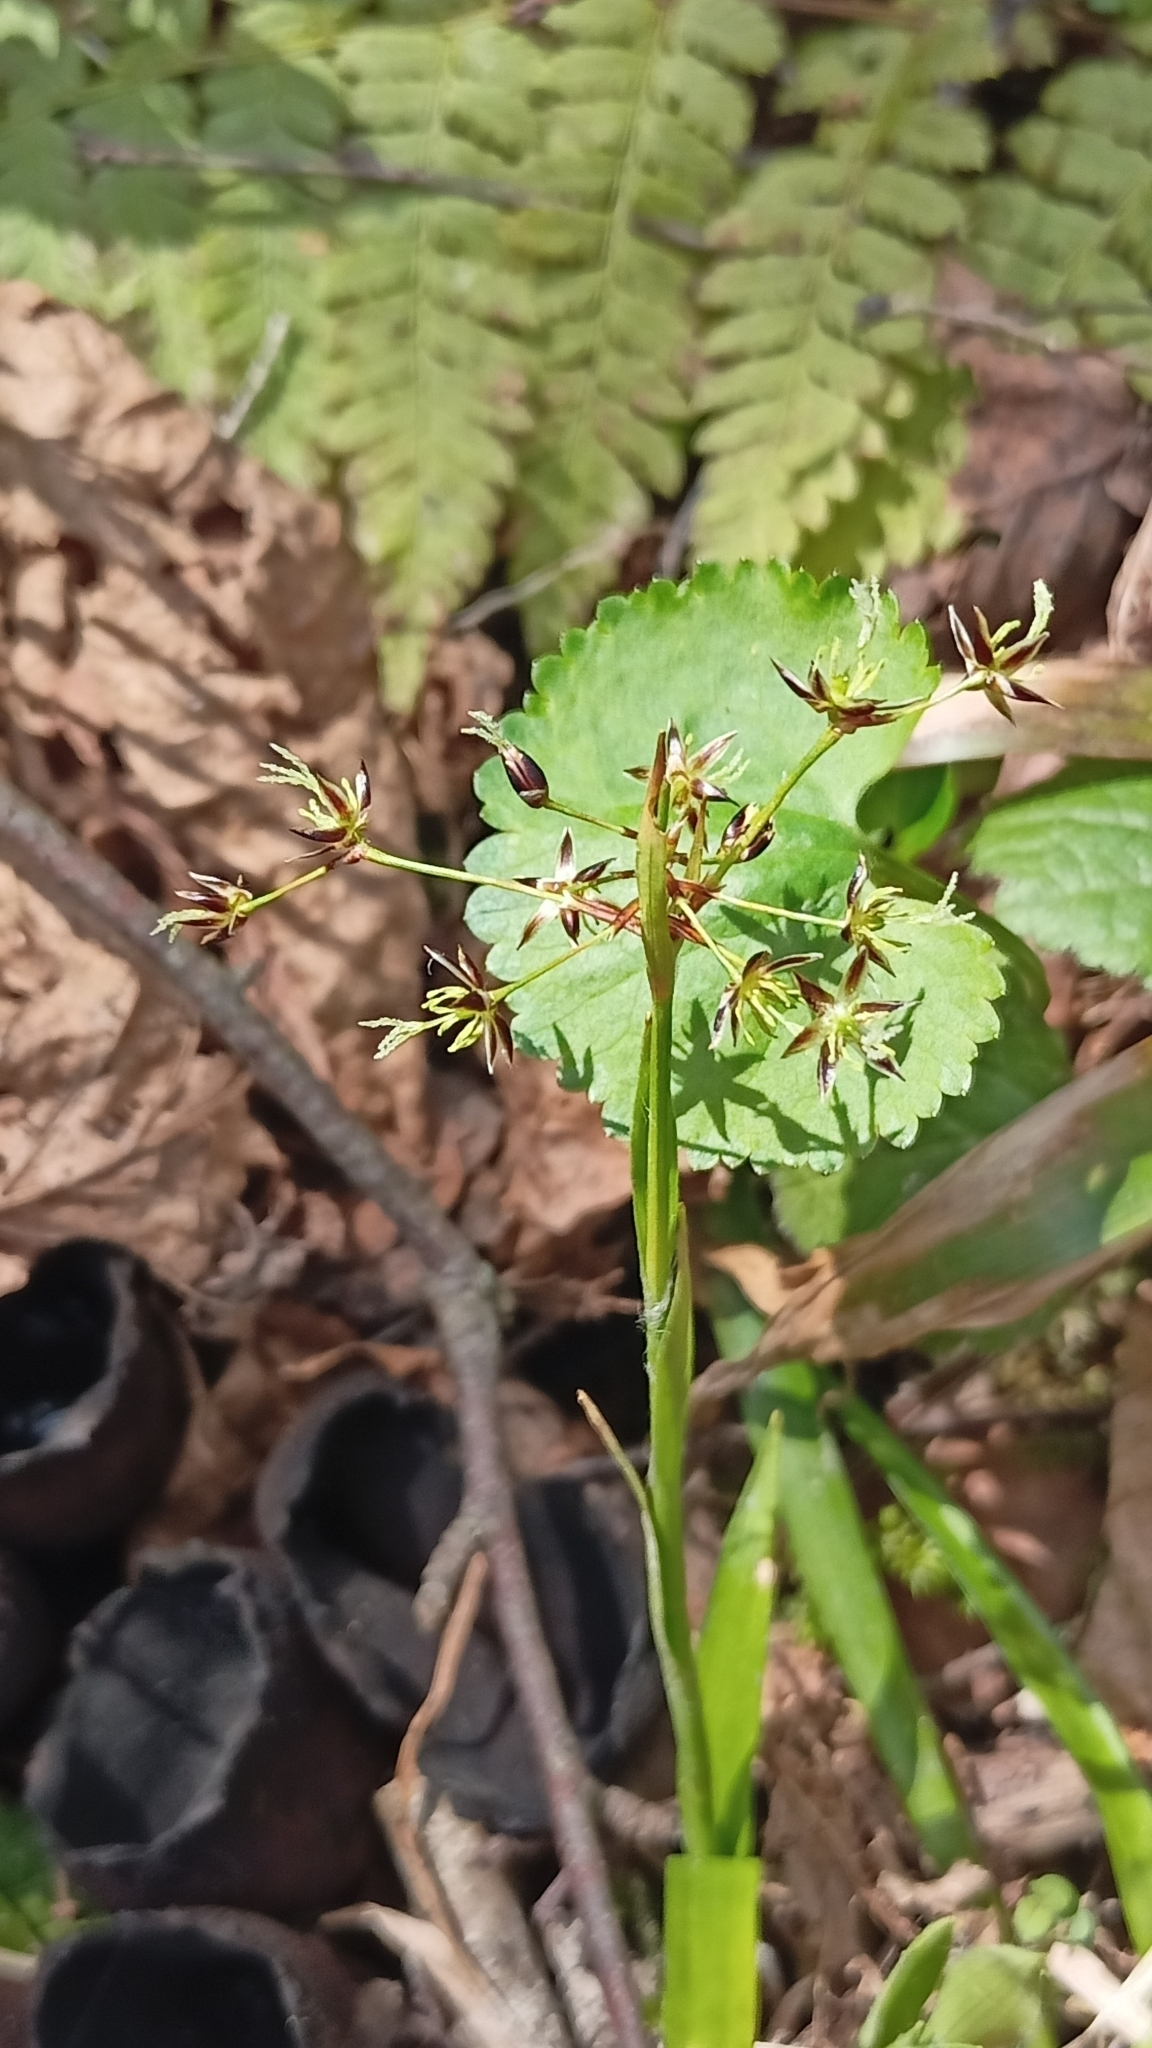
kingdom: Plantae
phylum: Tracheophyta
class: Liliopsida
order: Poales
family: Juncaceae
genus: Luzula
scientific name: Luzula pilosa
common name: Hairy wood-rush
